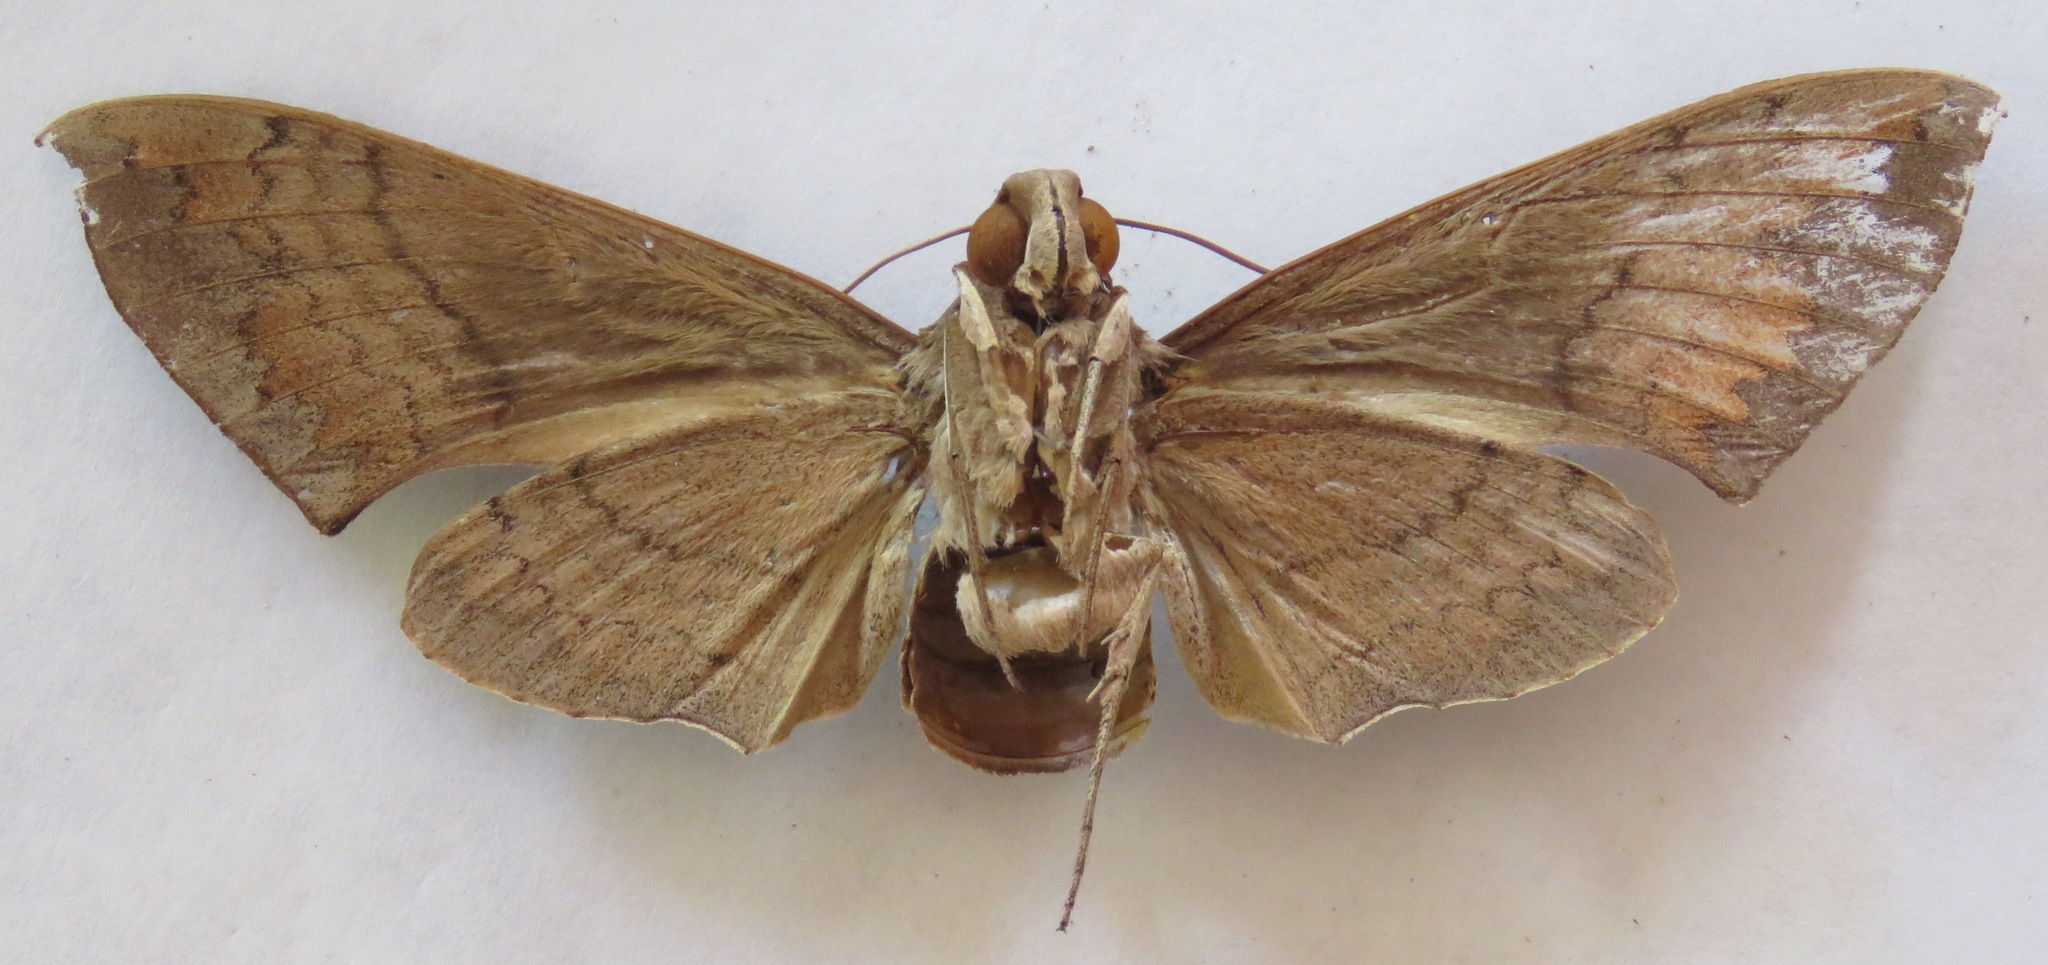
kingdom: Animalia
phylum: Arthropoda
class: Insecta
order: Lepidoptera
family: Sphingidae
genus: Pachylioides
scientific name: Pachylioides resumens
